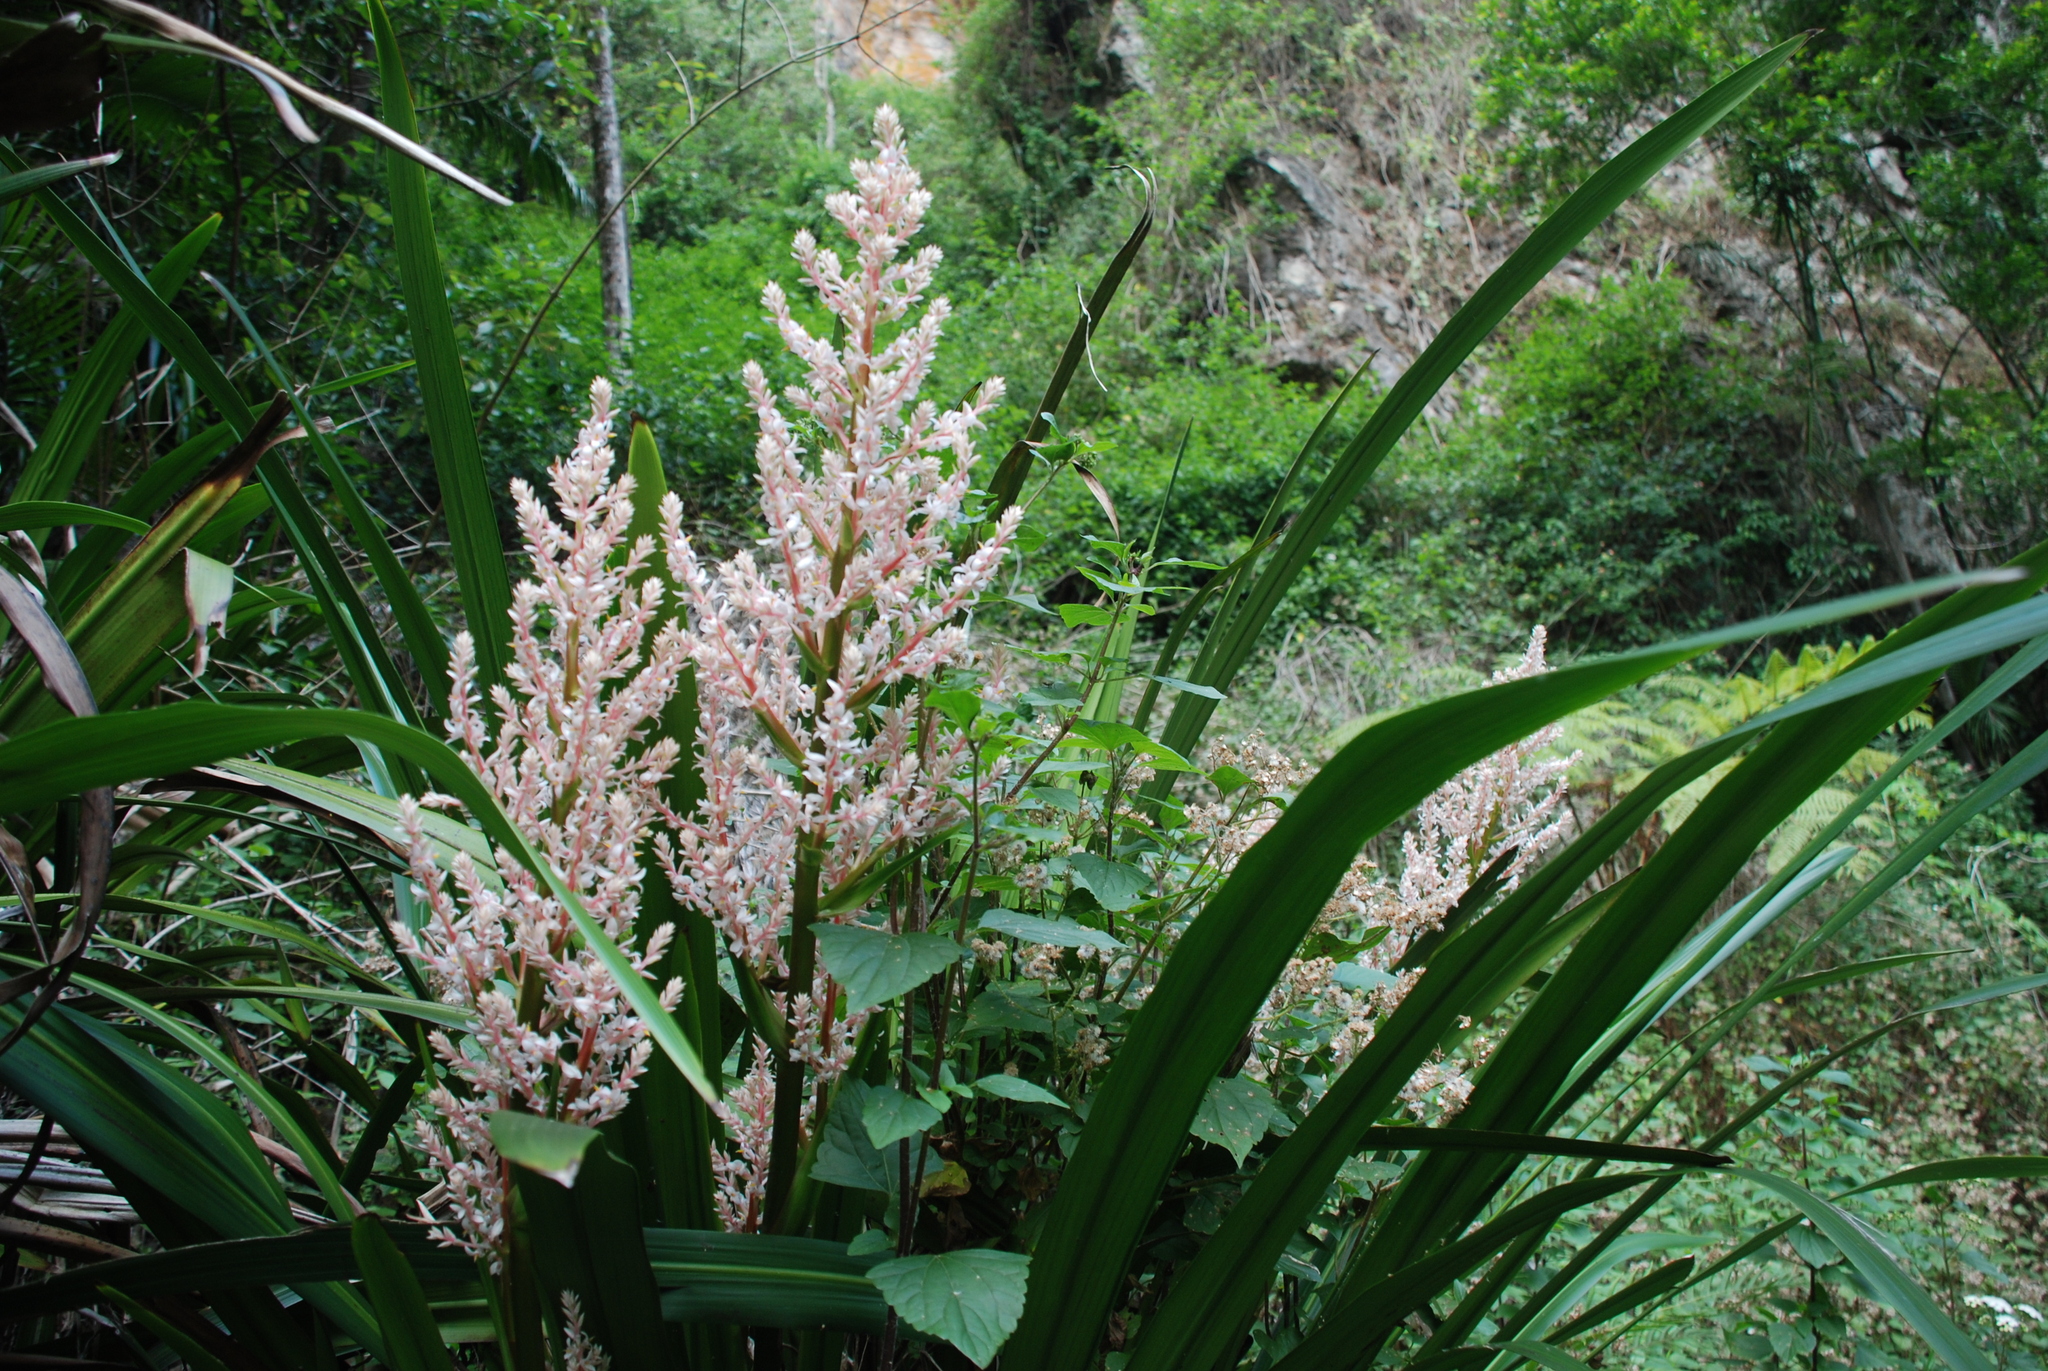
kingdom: Plantae
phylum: Tracheophyta
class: Liliopsida
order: Commelinales
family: Philydraceae
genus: Helmholtzia
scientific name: Helmholtzia glaberrima
